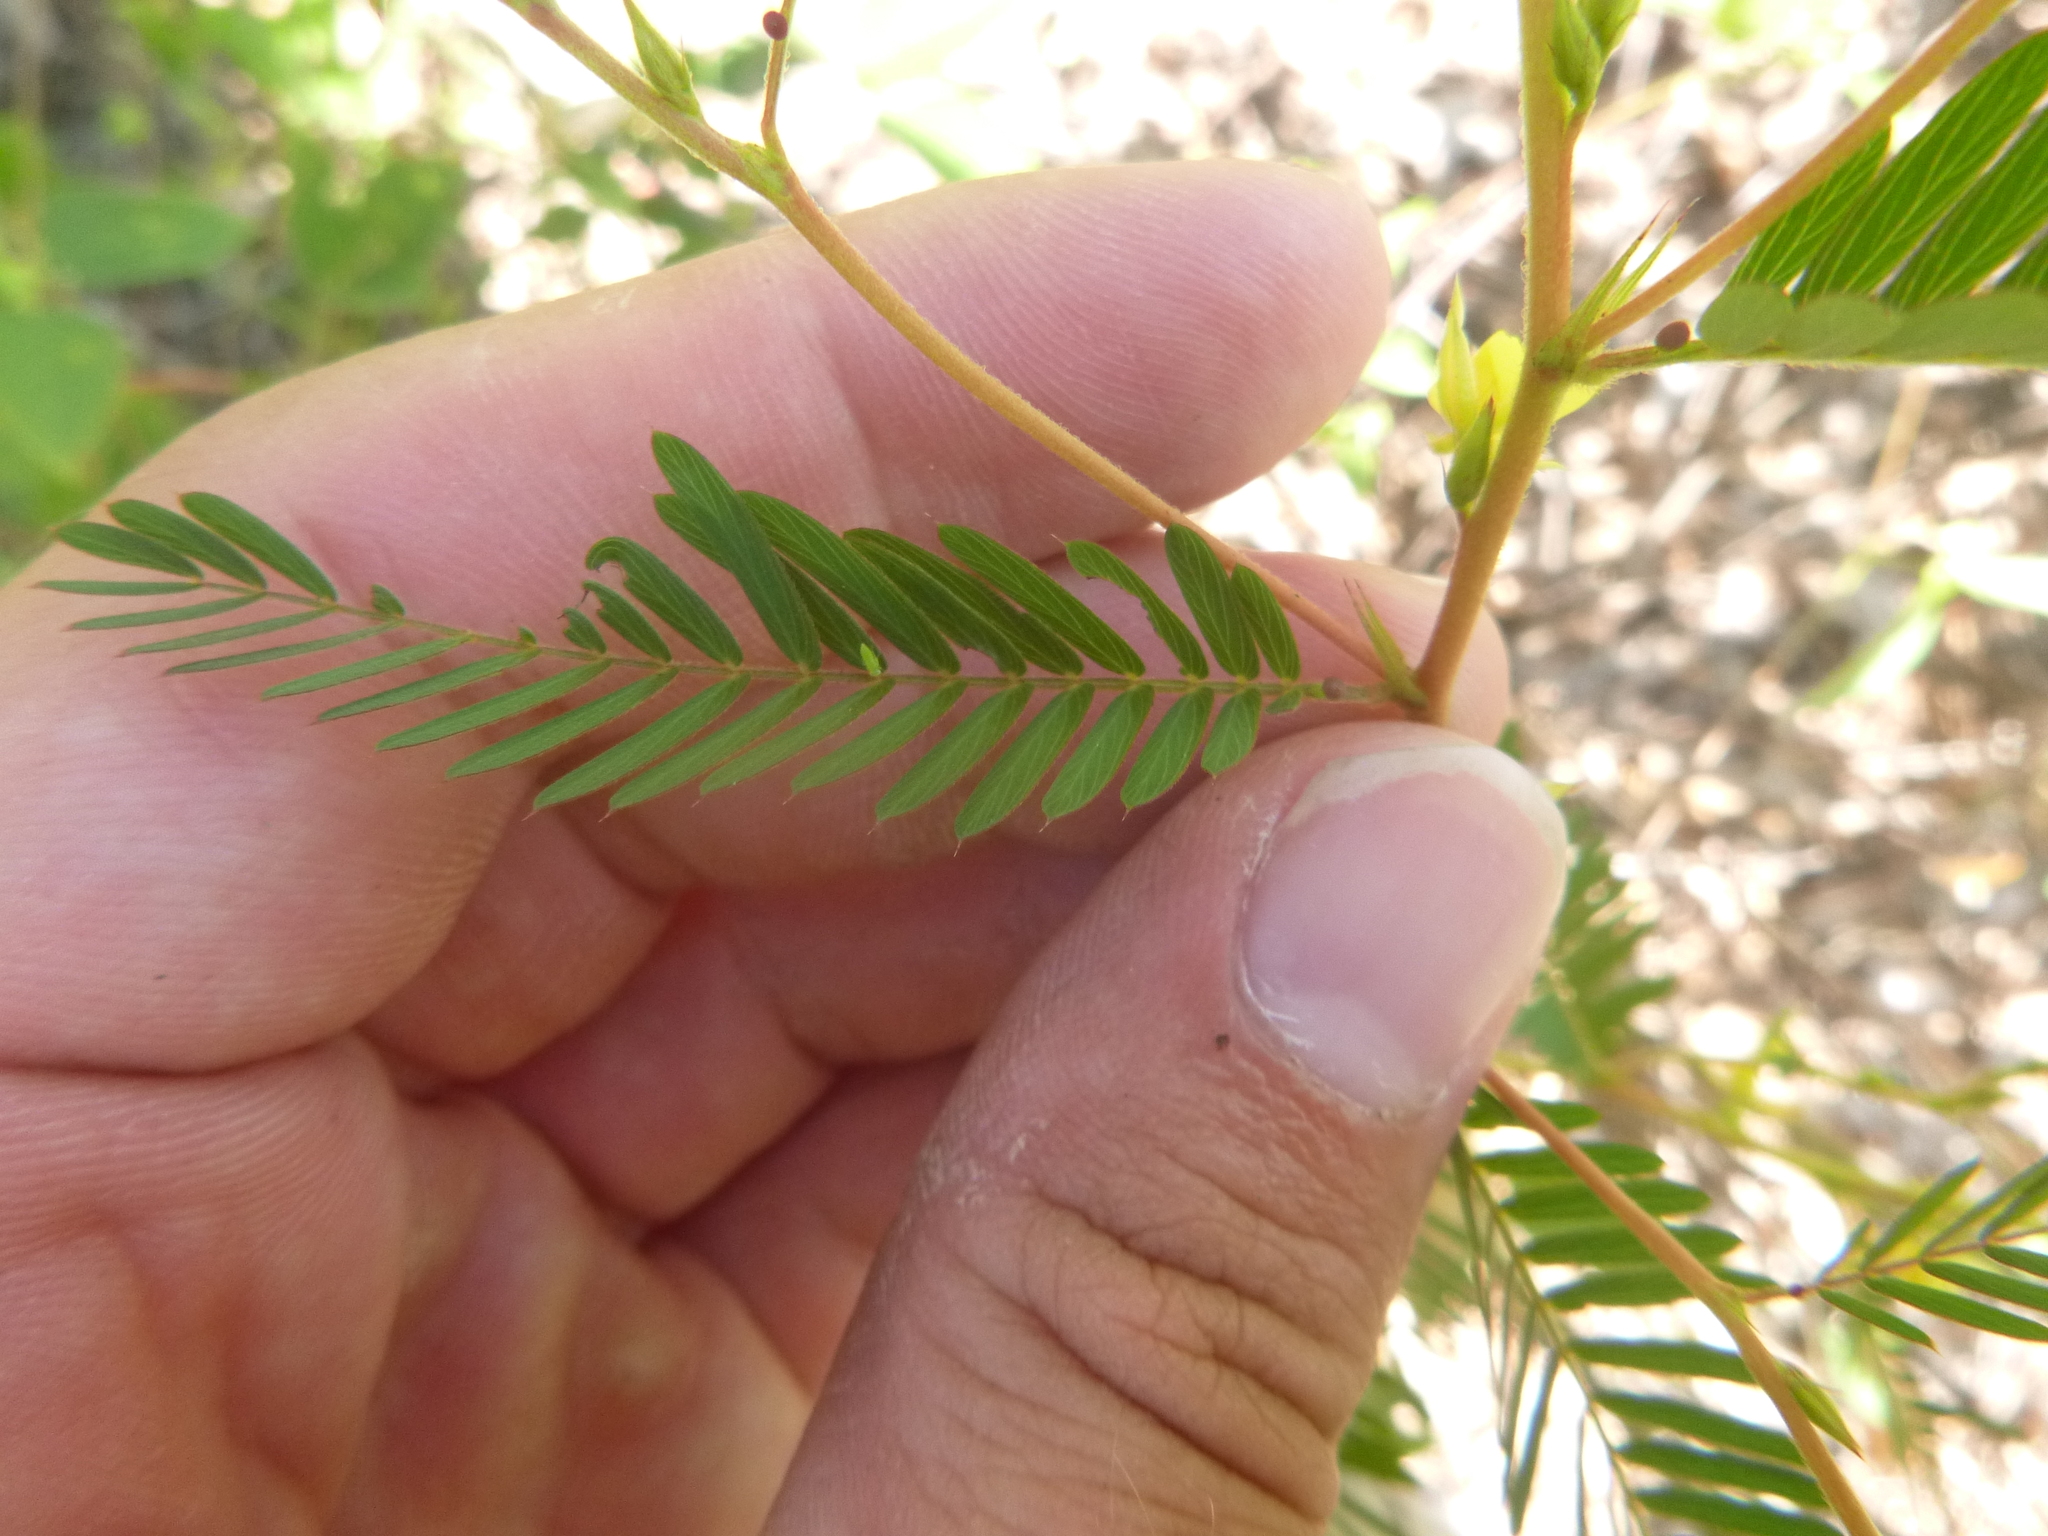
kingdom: Plantae
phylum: Tracheophyta
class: Magnoliopsida
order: Fabales
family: Fabaceae
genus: Chamaecrista
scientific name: Chamaecrista nictitans
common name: Sensitive cassia
